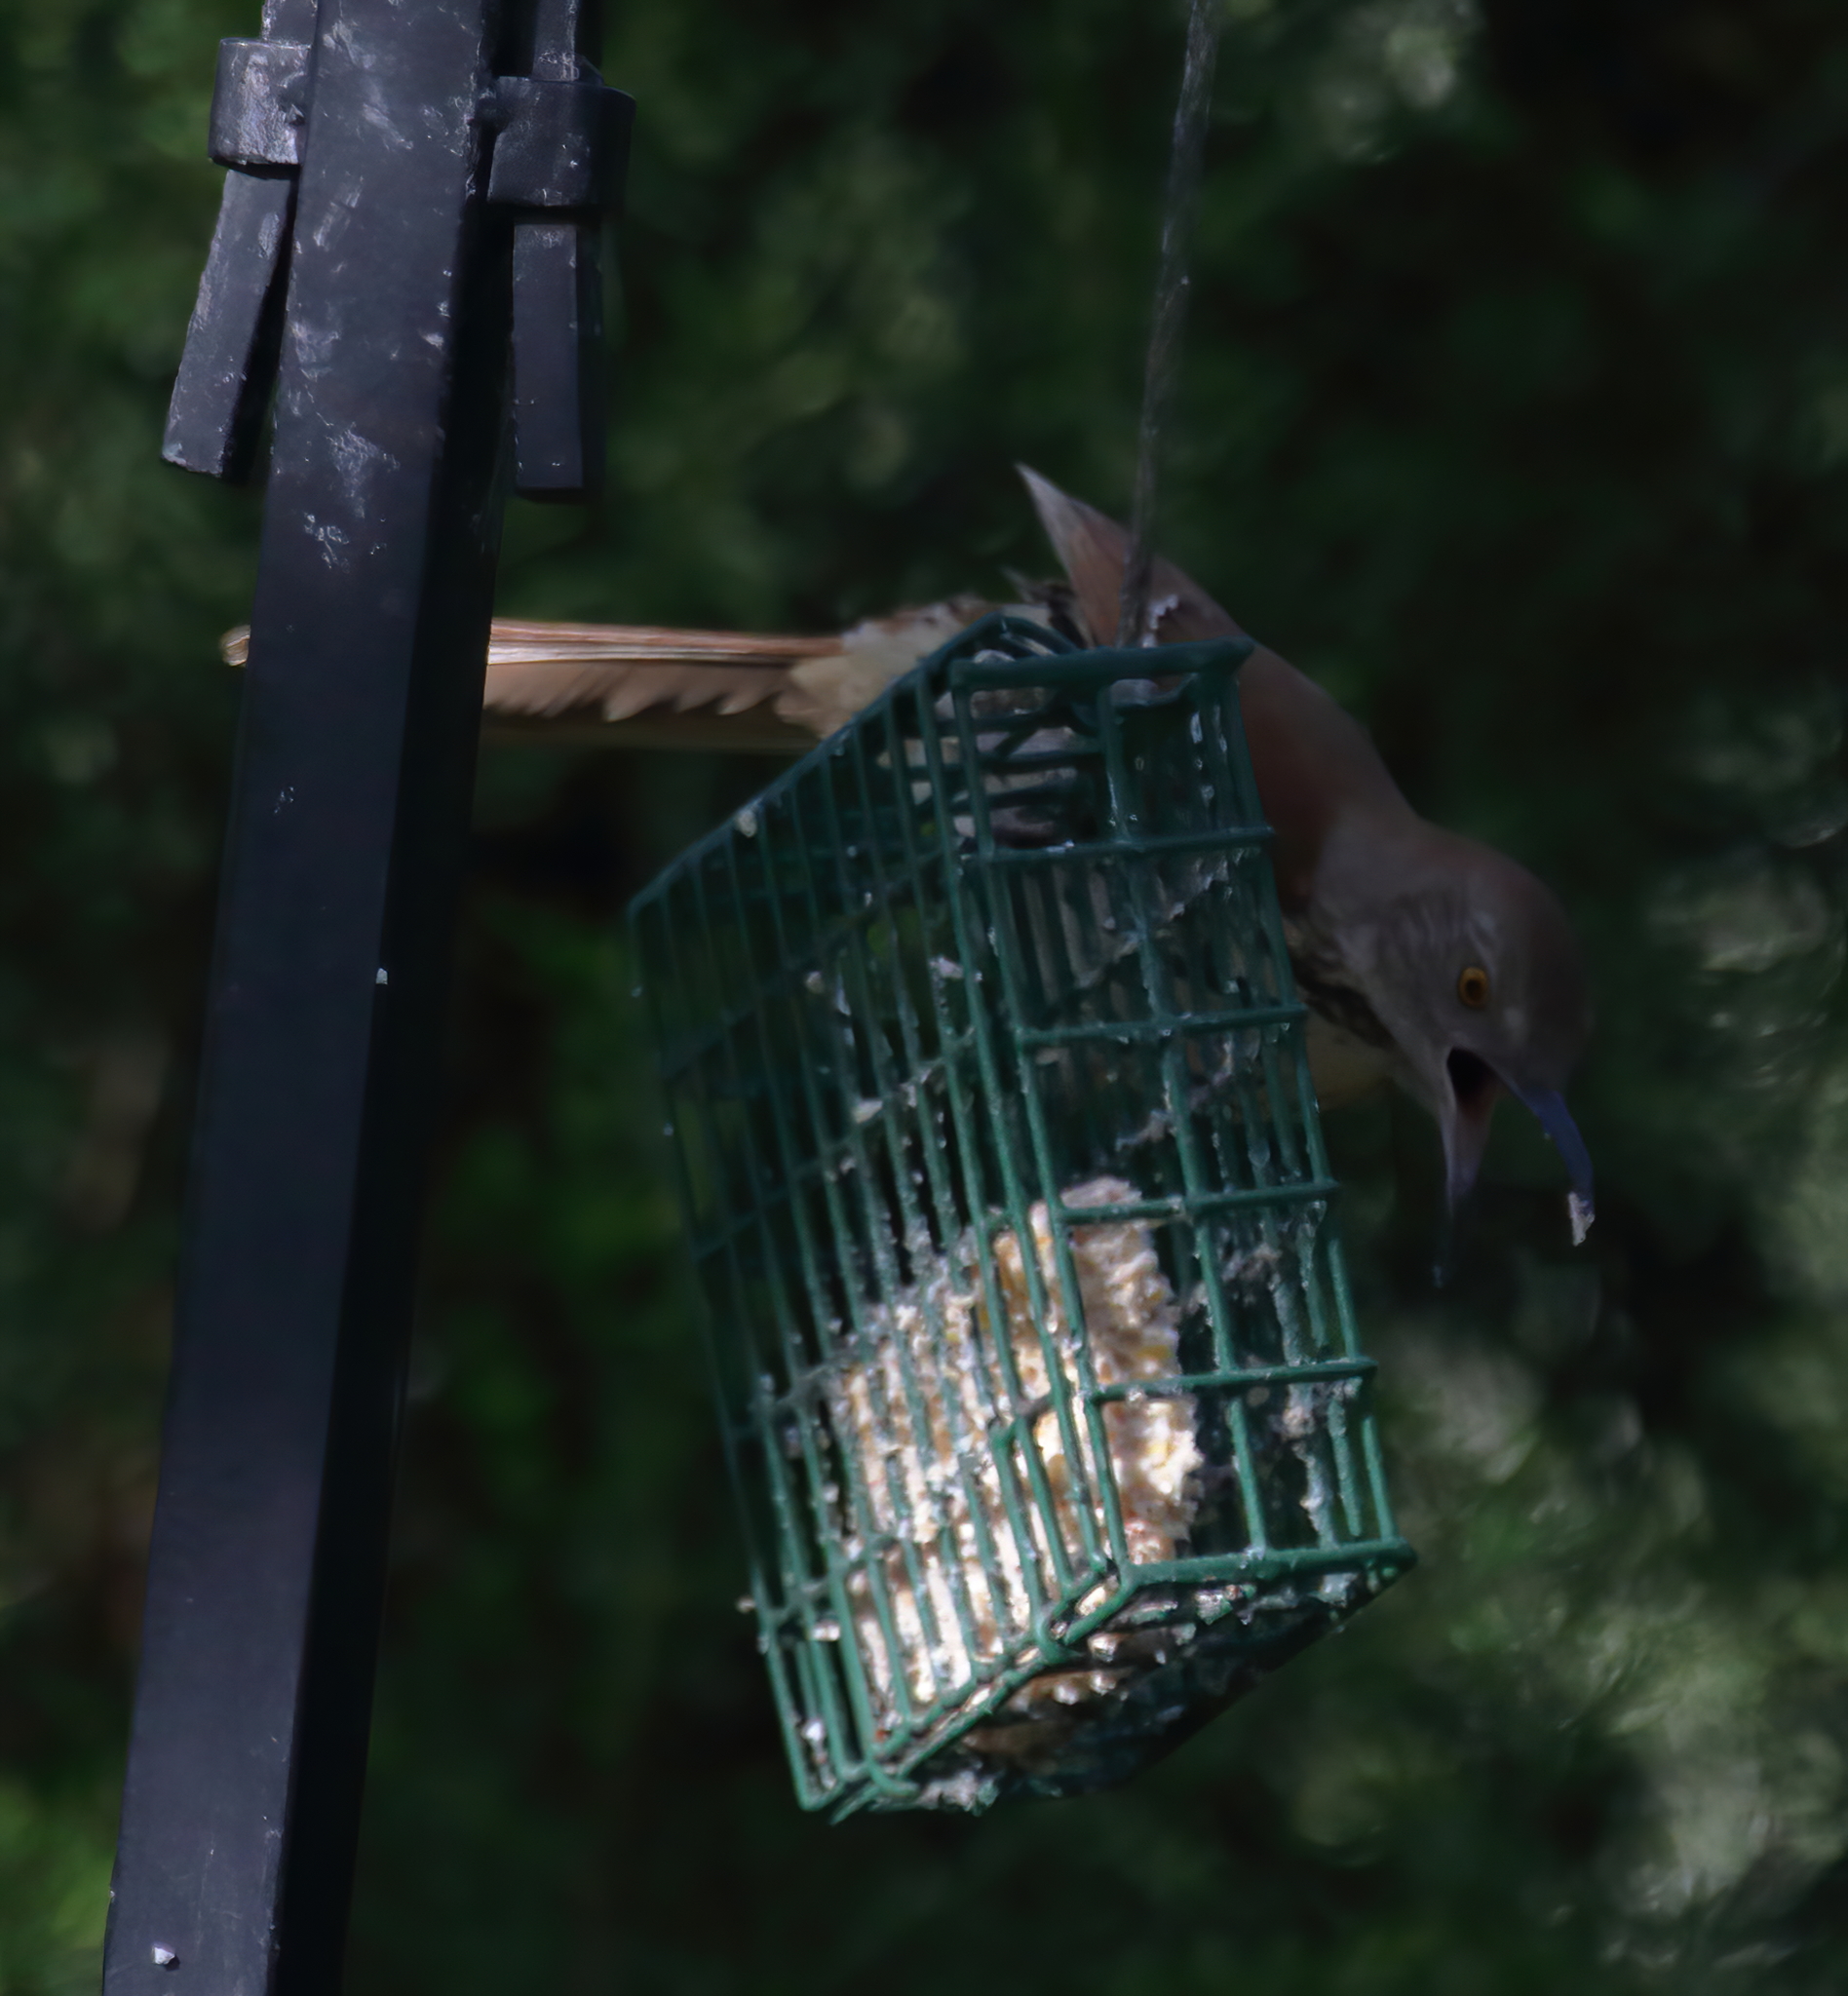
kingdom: Animalia
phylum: Chordata
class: Aves
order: Passeriformes
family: Mimidae
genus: Toxostoma
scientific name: Toxostoma rufum
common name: Brown thrasher
